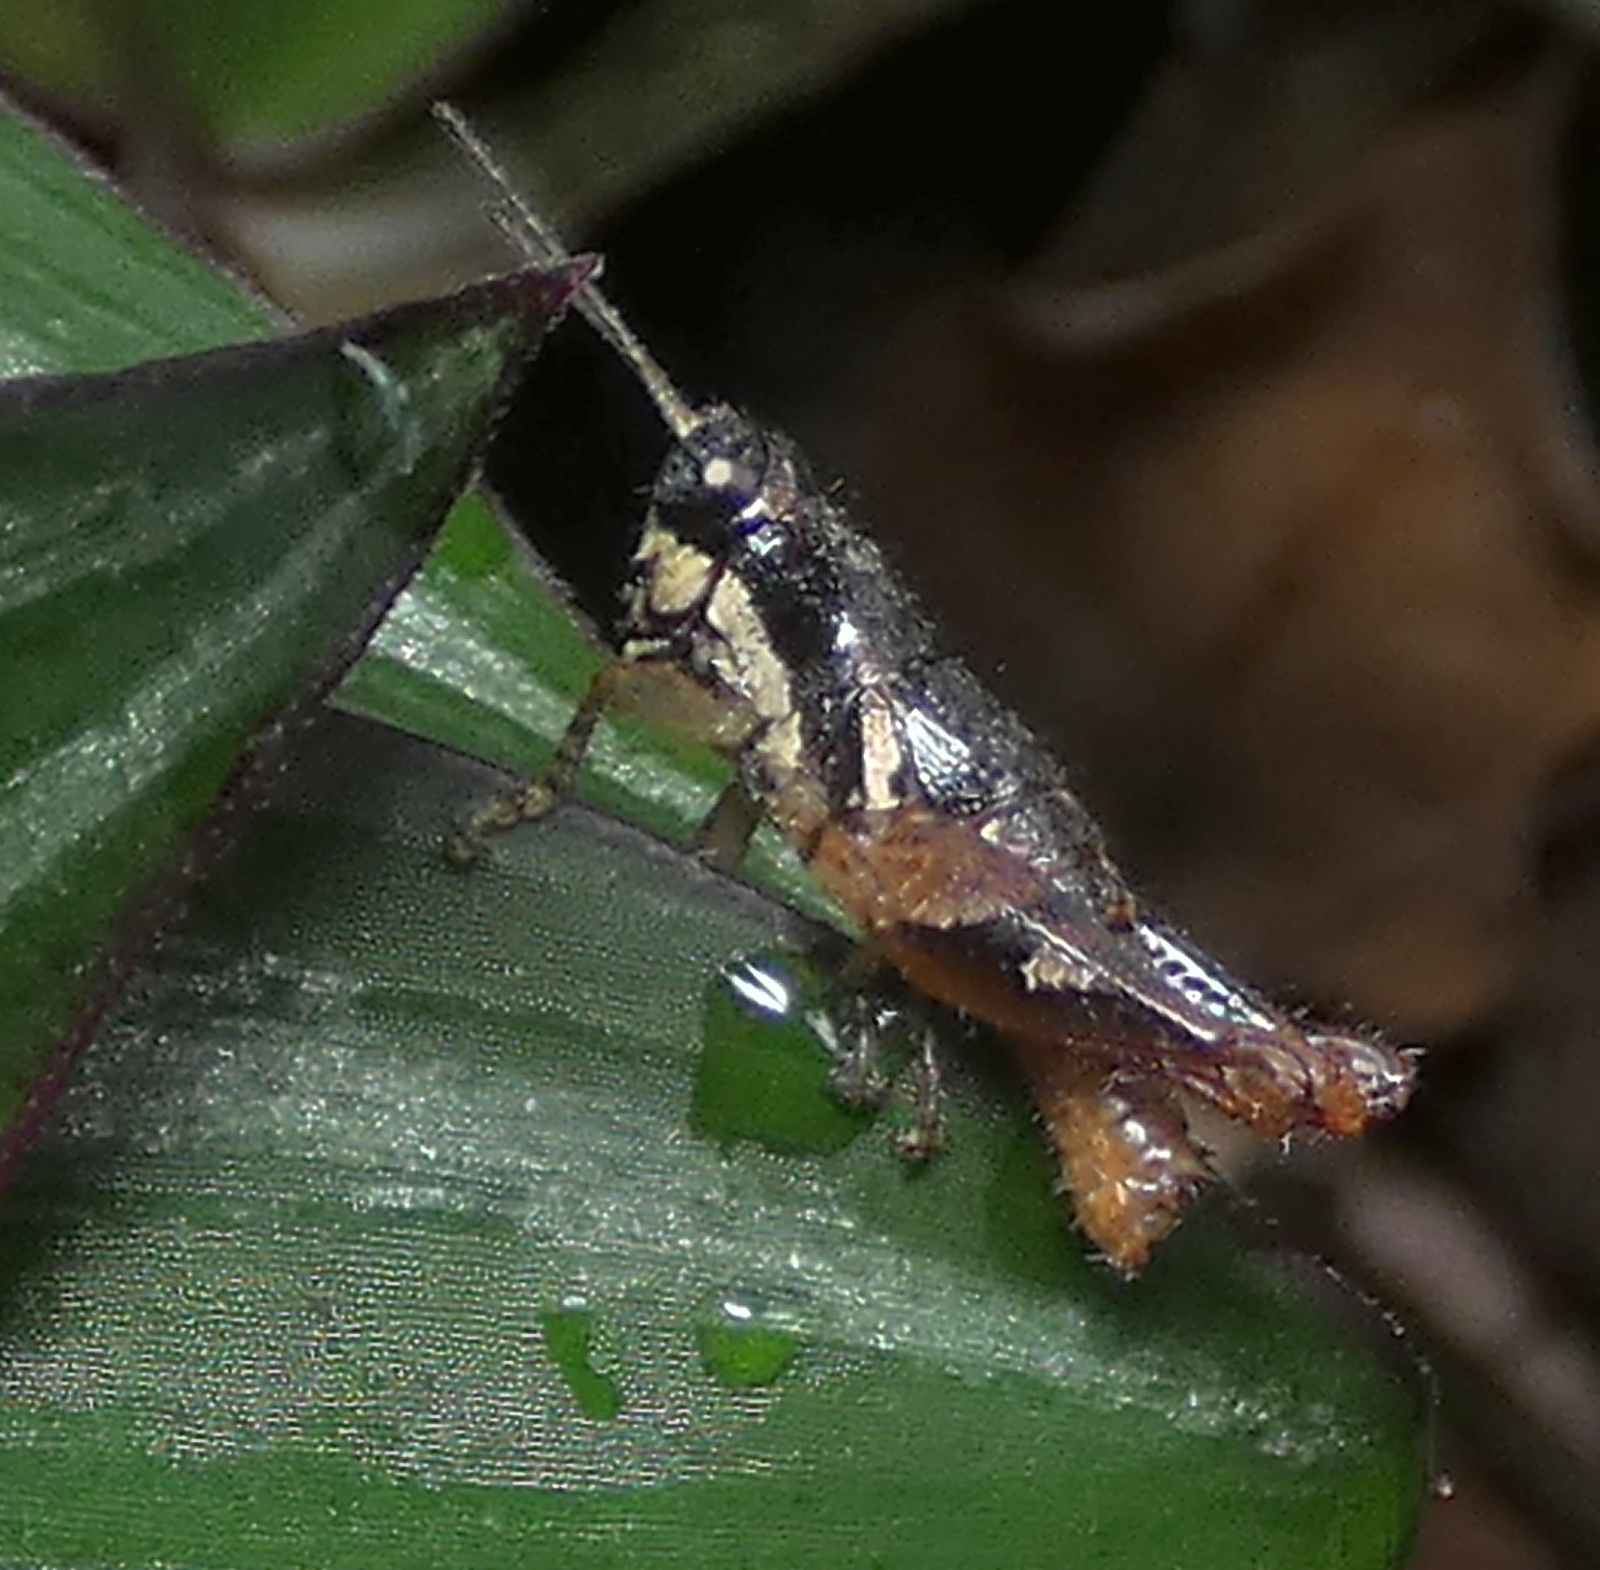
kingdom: Animalia
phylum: Arthropoda
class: Insecta
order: Orthoptera
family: Acrididae
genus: Eujivarus
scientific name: Eujivarus meridionalis
